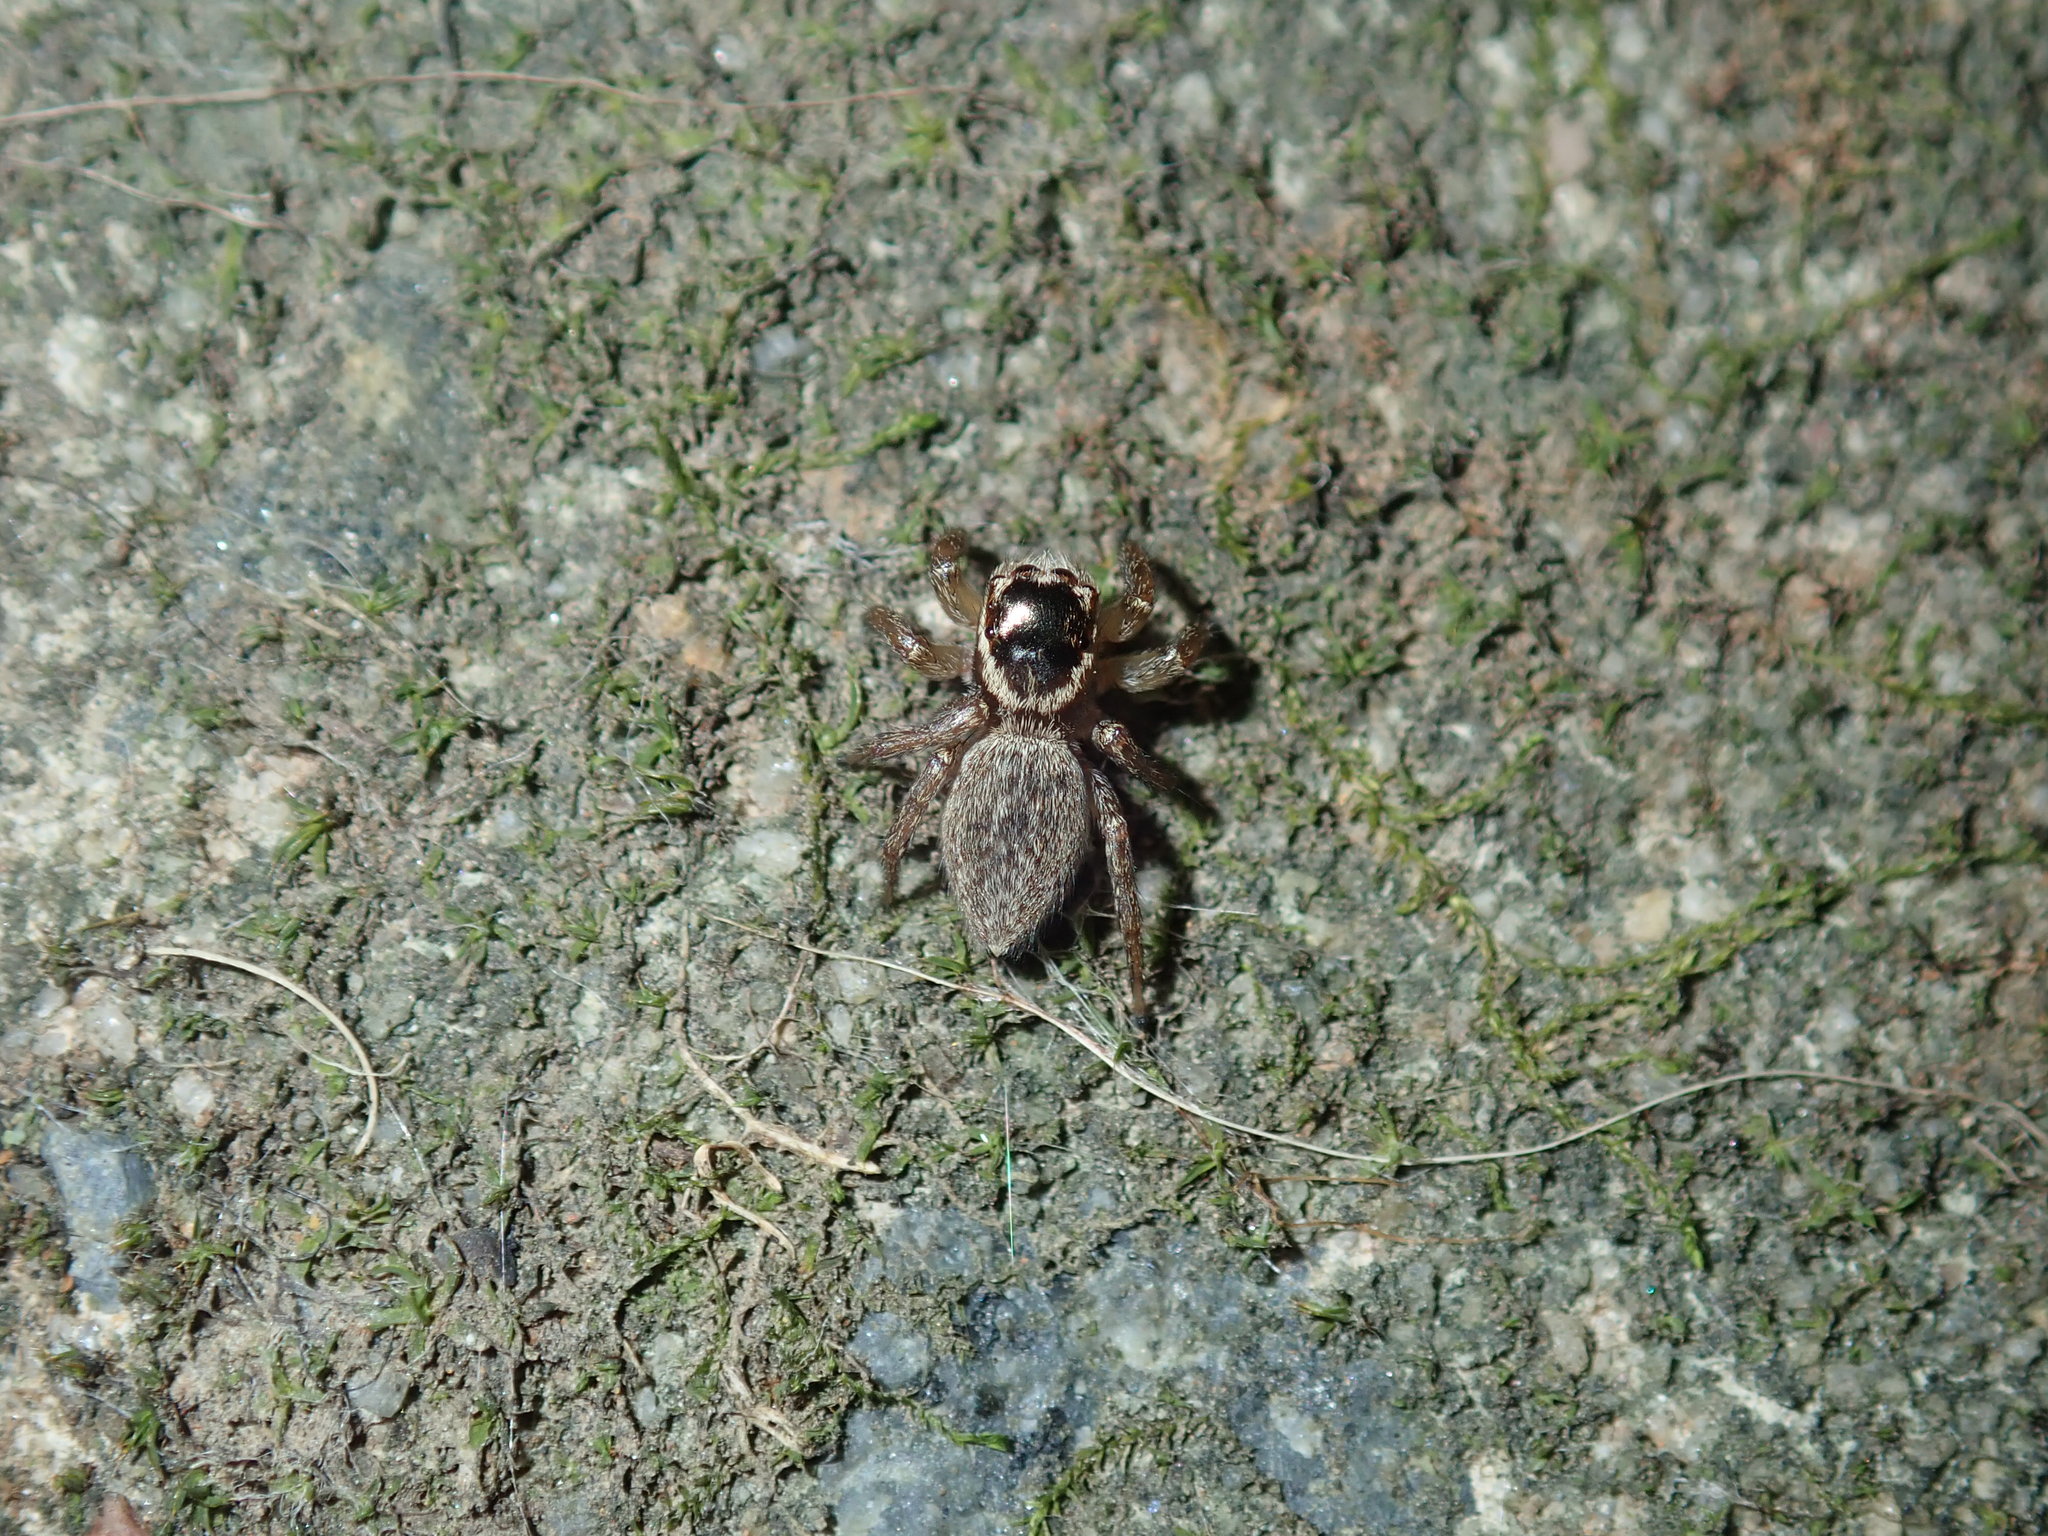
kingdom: Animalia
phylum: Arthropoda
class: Arachnida
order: Araneae
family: Salticidae
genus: Maratus
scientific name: Maratus griseus
